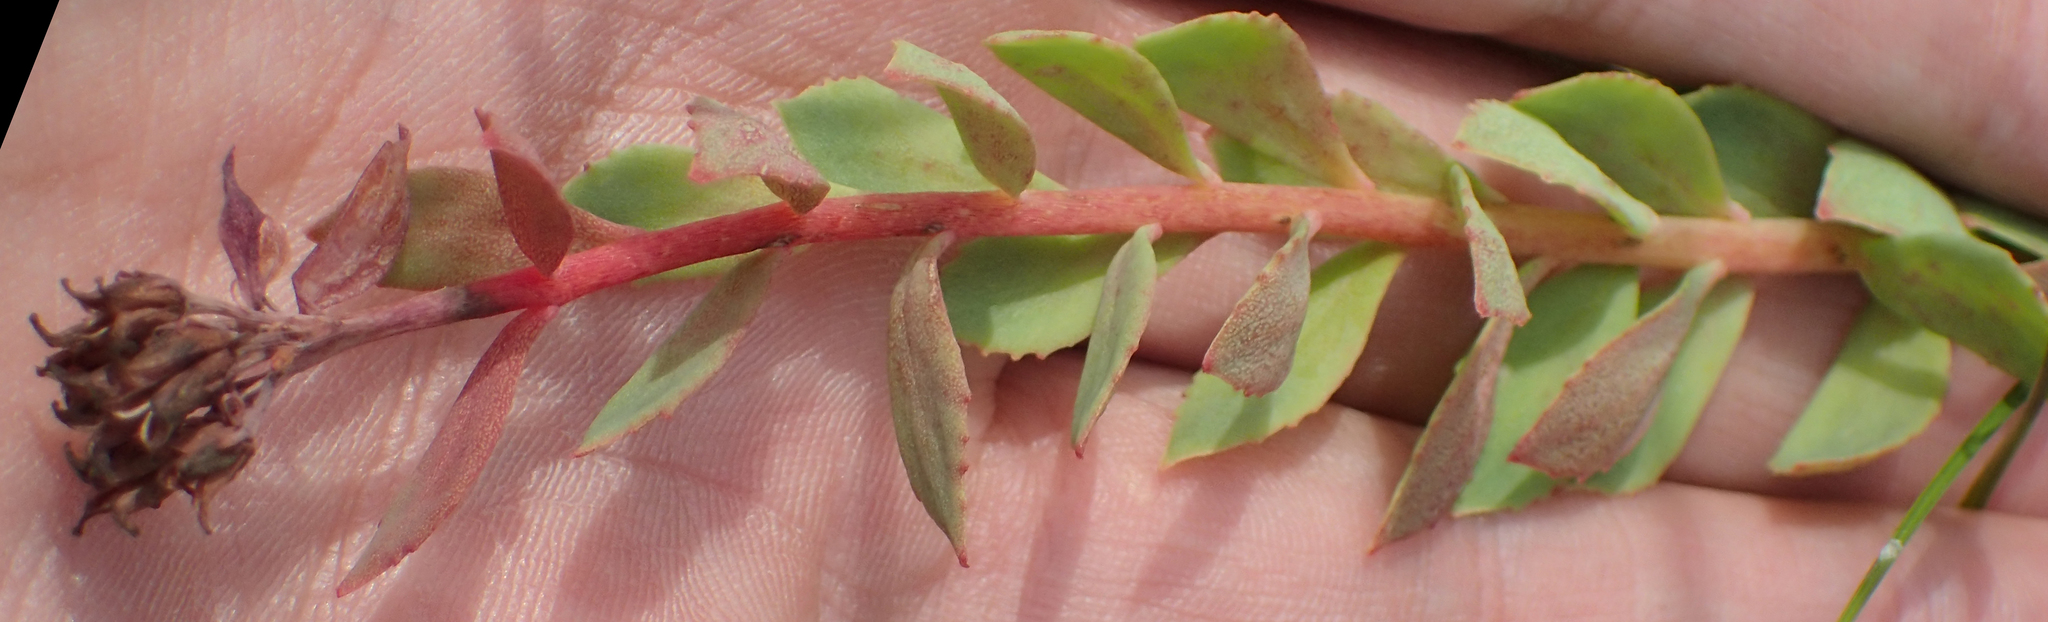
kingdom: Plantae
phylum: Tracheophyta
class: Magnoliopsida
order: Saxifragales
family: Crassulaceae
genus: Rhodiola
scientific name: Rhodiola integrifolia
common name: Western roseroot
